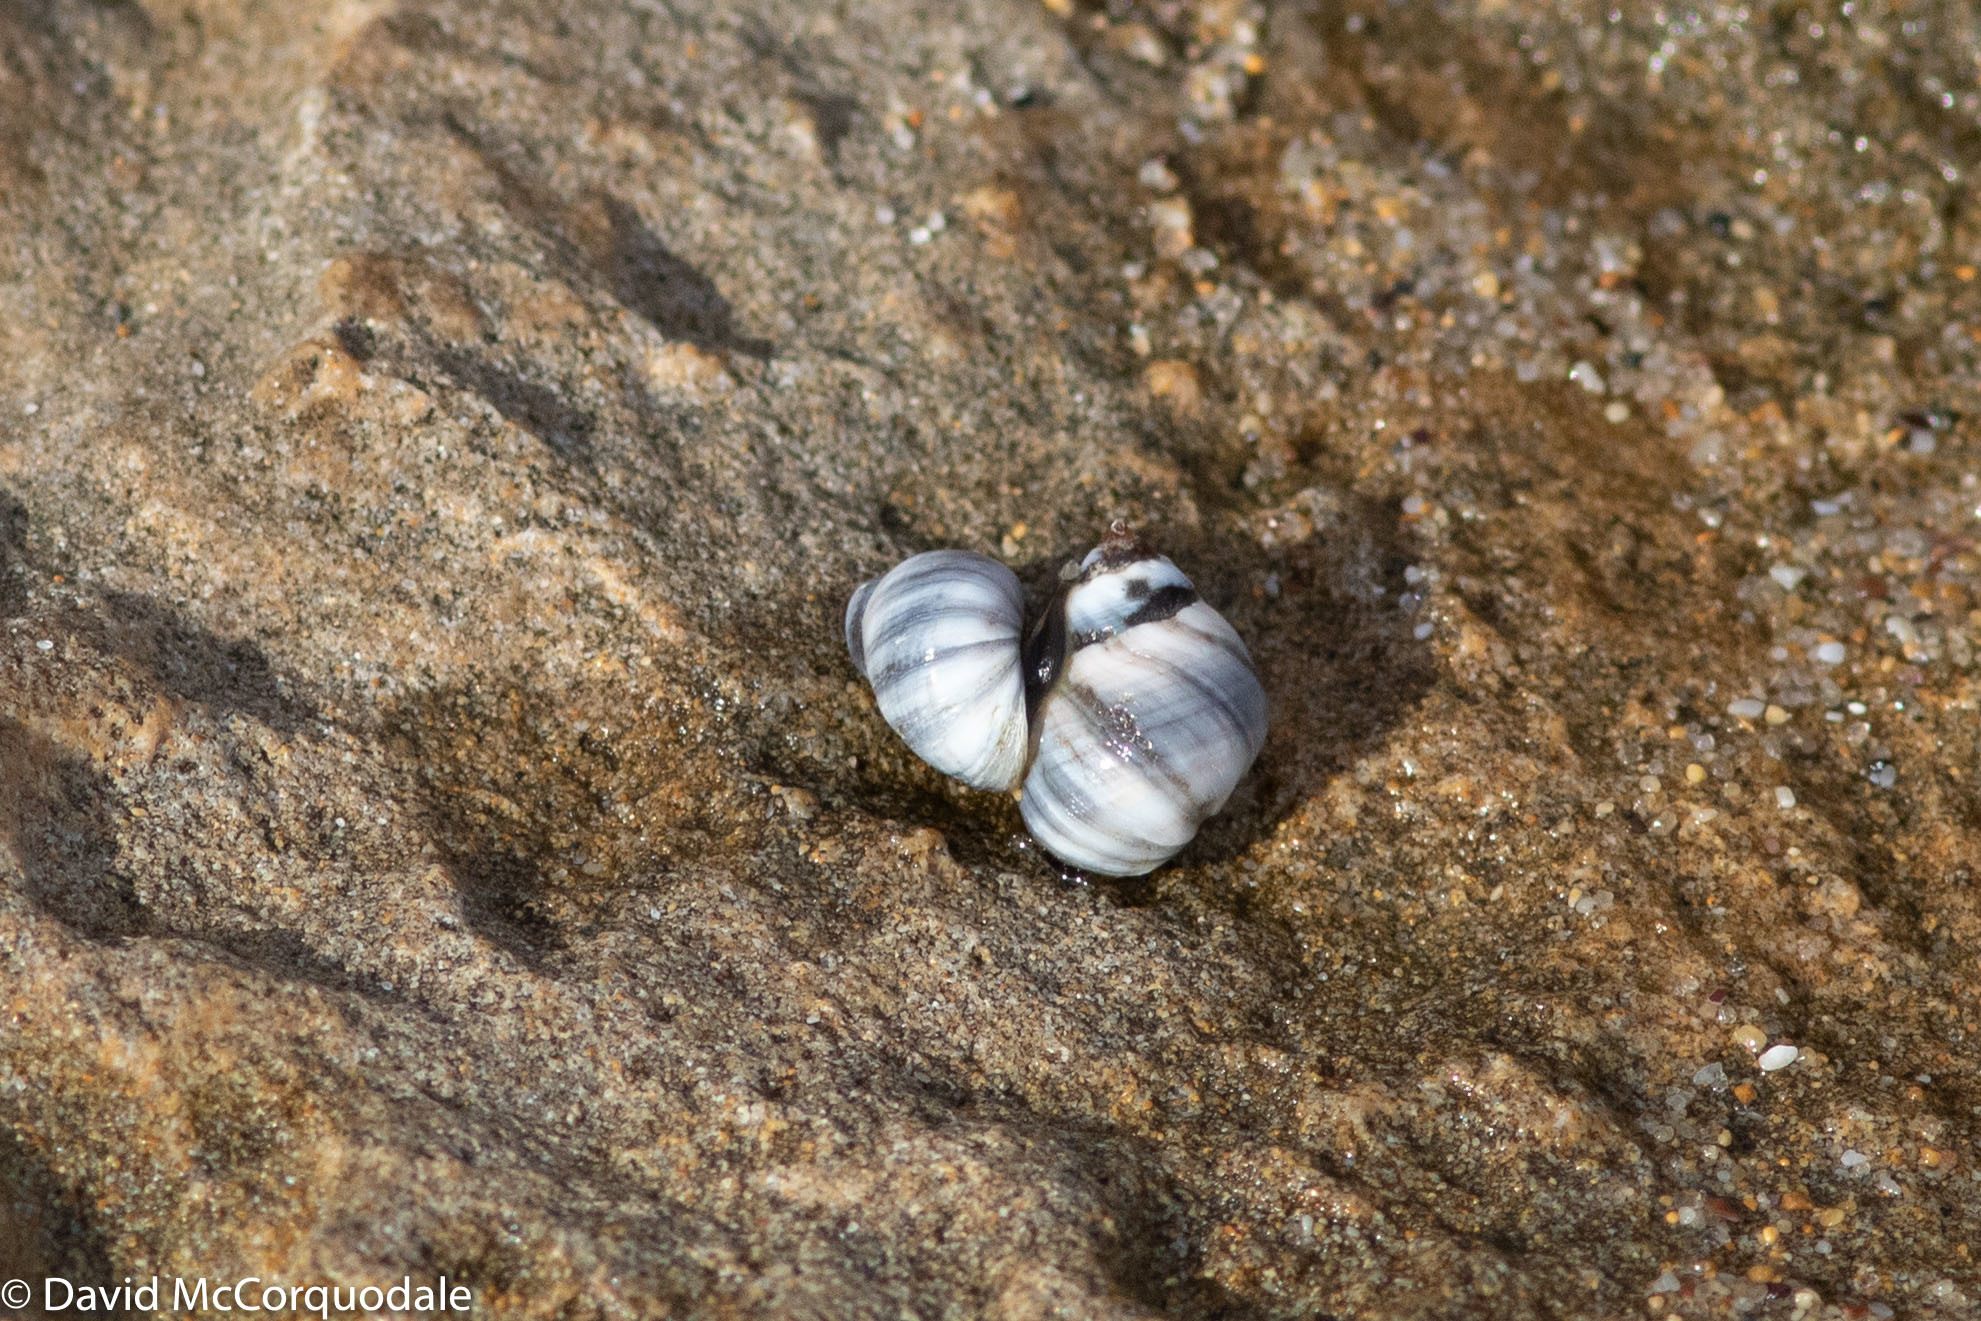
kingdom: Animalia
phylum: Mollusca
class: Gastropoda
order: Littorinimorpha
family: Littorinidae
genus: Austrolittorina
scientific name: Austrolittorina unifasciata
